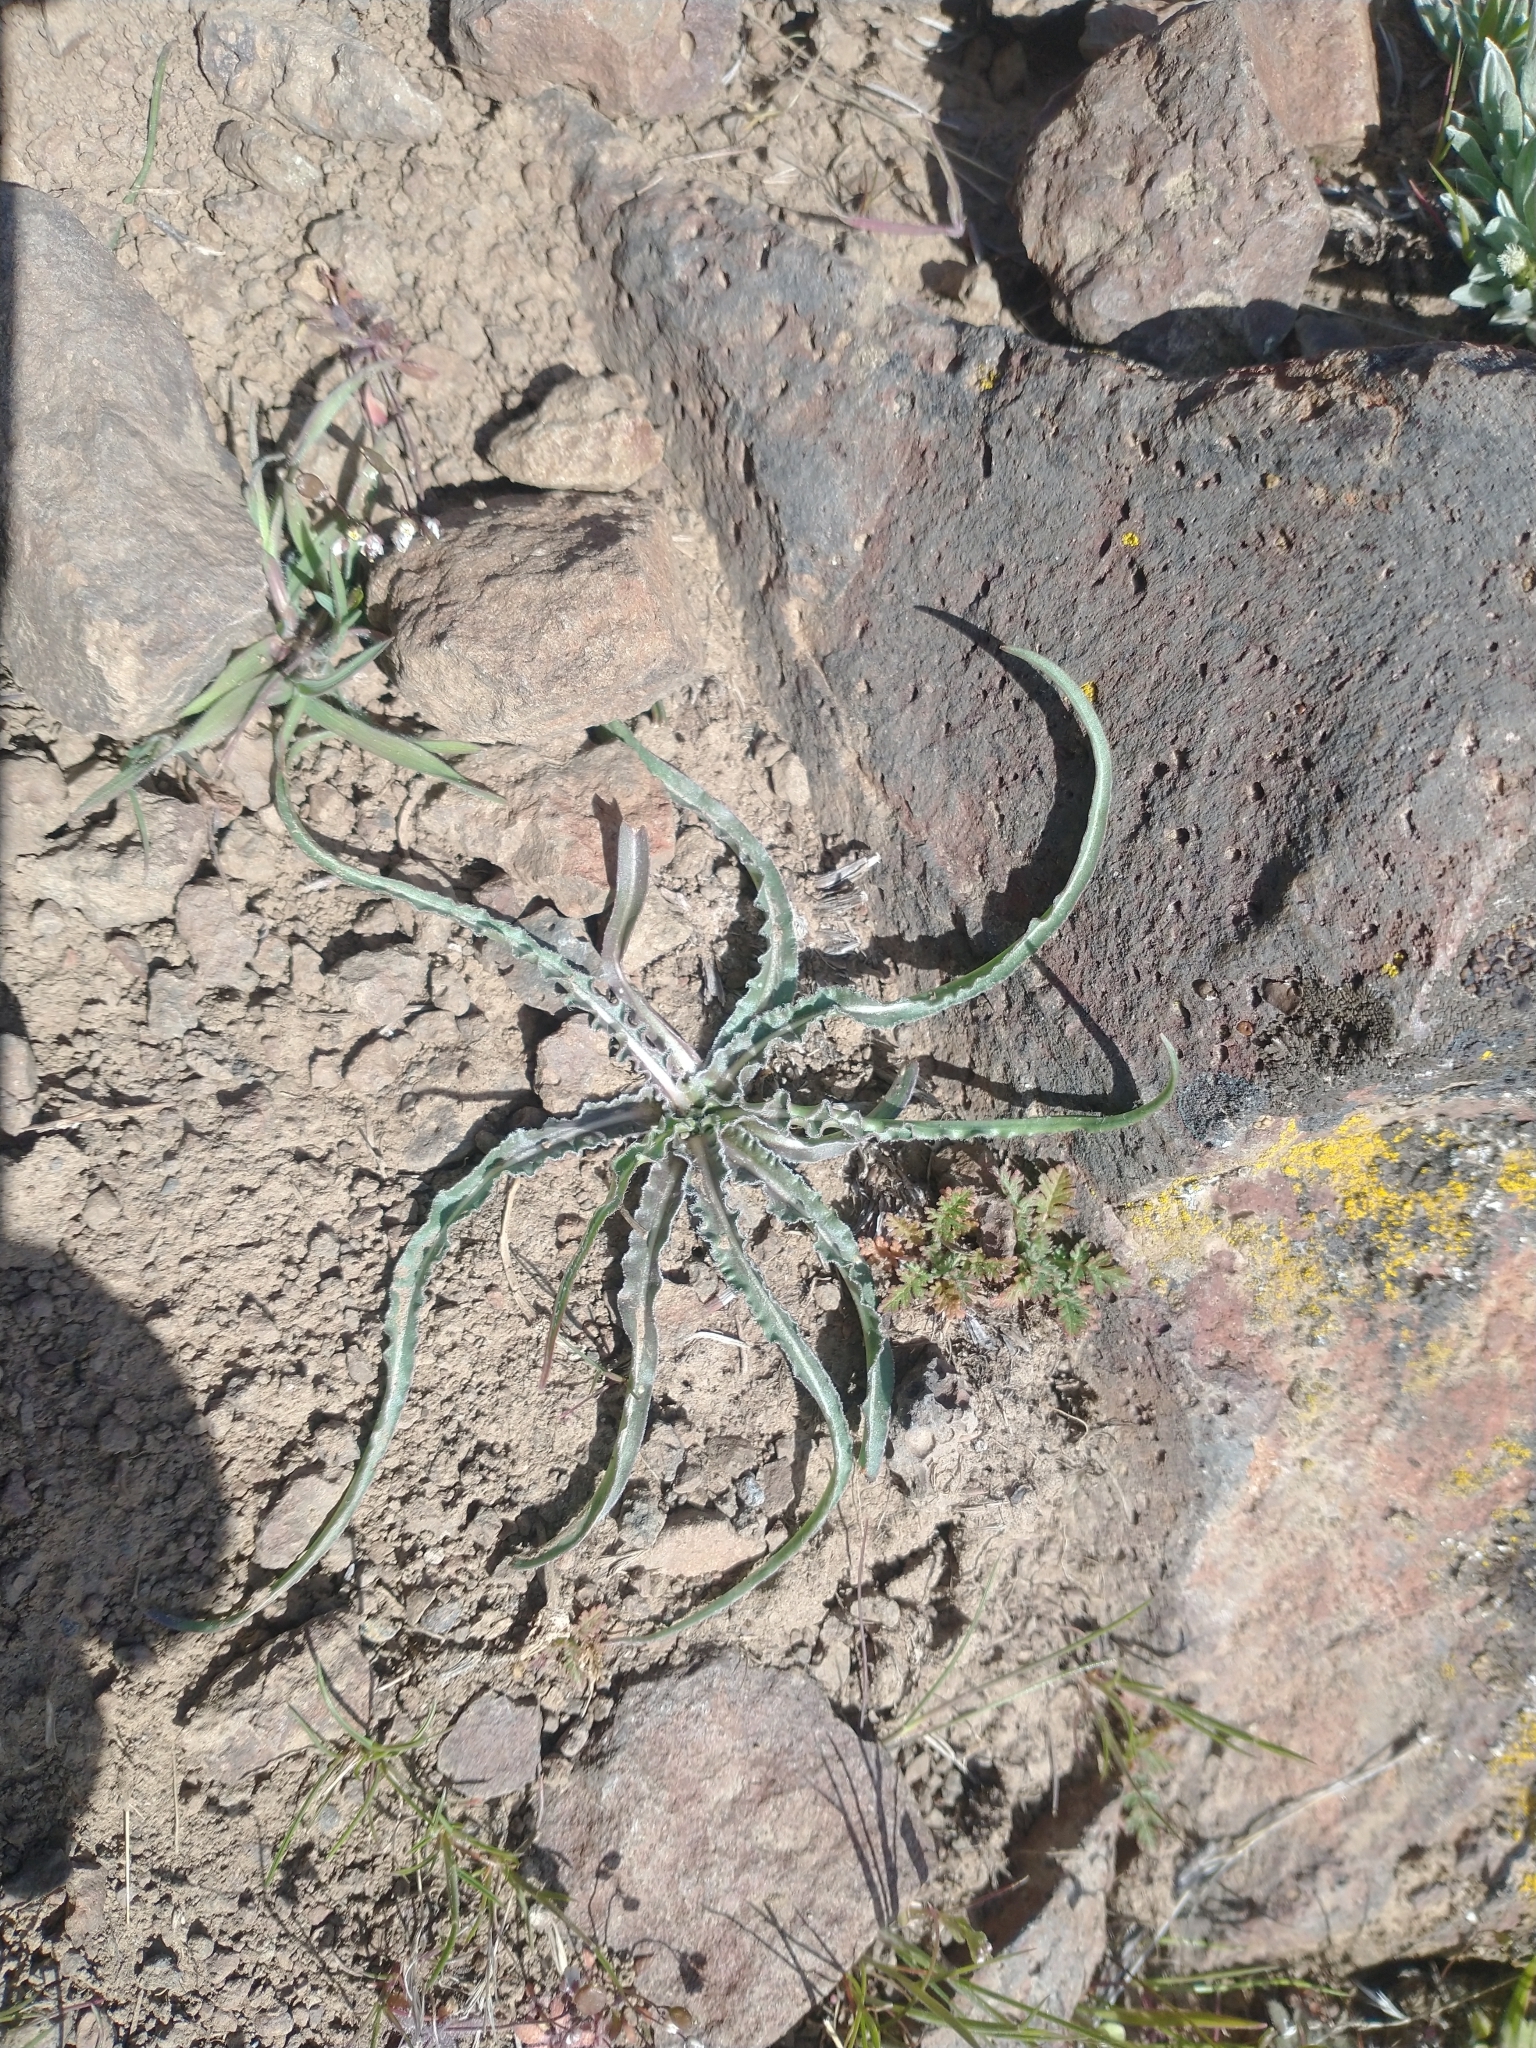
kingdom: Plantae
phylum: Tracheophyta
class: Magnoliopsida
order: Asterales
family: Asteraceae
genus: Microseris
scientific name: Microseris troximoides
